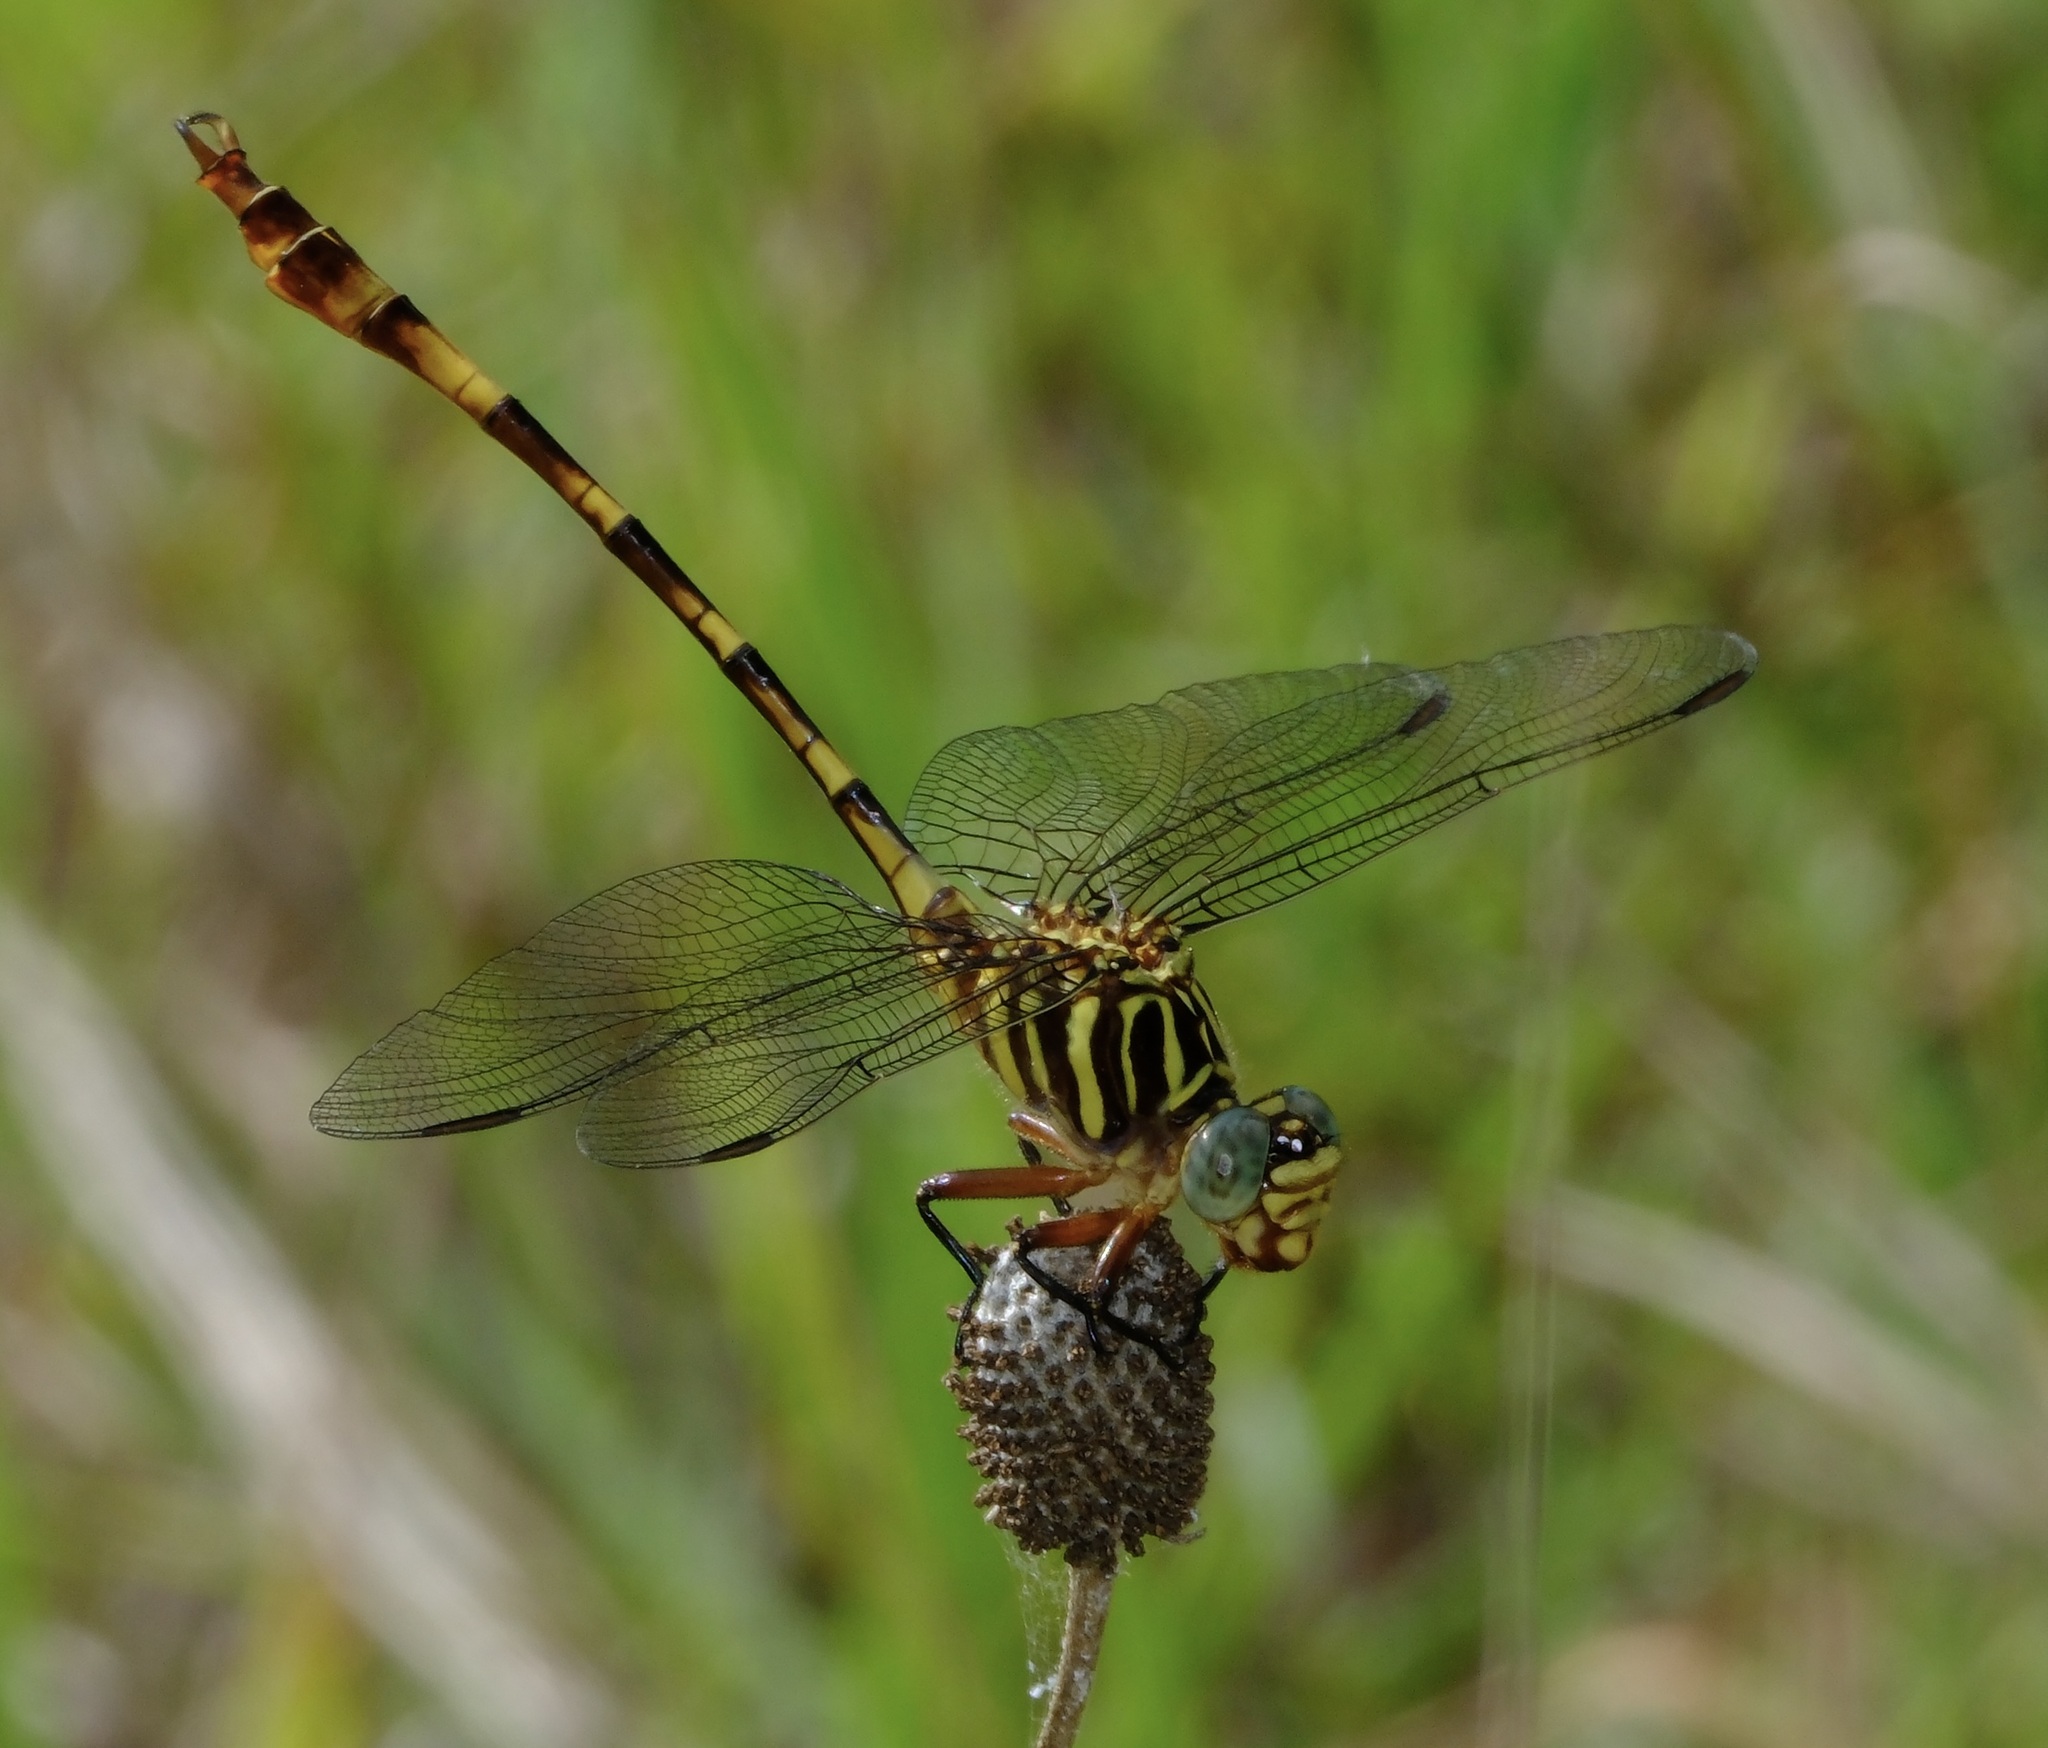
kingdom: Animalia
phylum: Arthropoda
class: Insecta
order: Odonata
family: Gomphidae
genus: Aphylla
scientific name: Aphylla angustifolia
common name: Broad-striped forceptail
